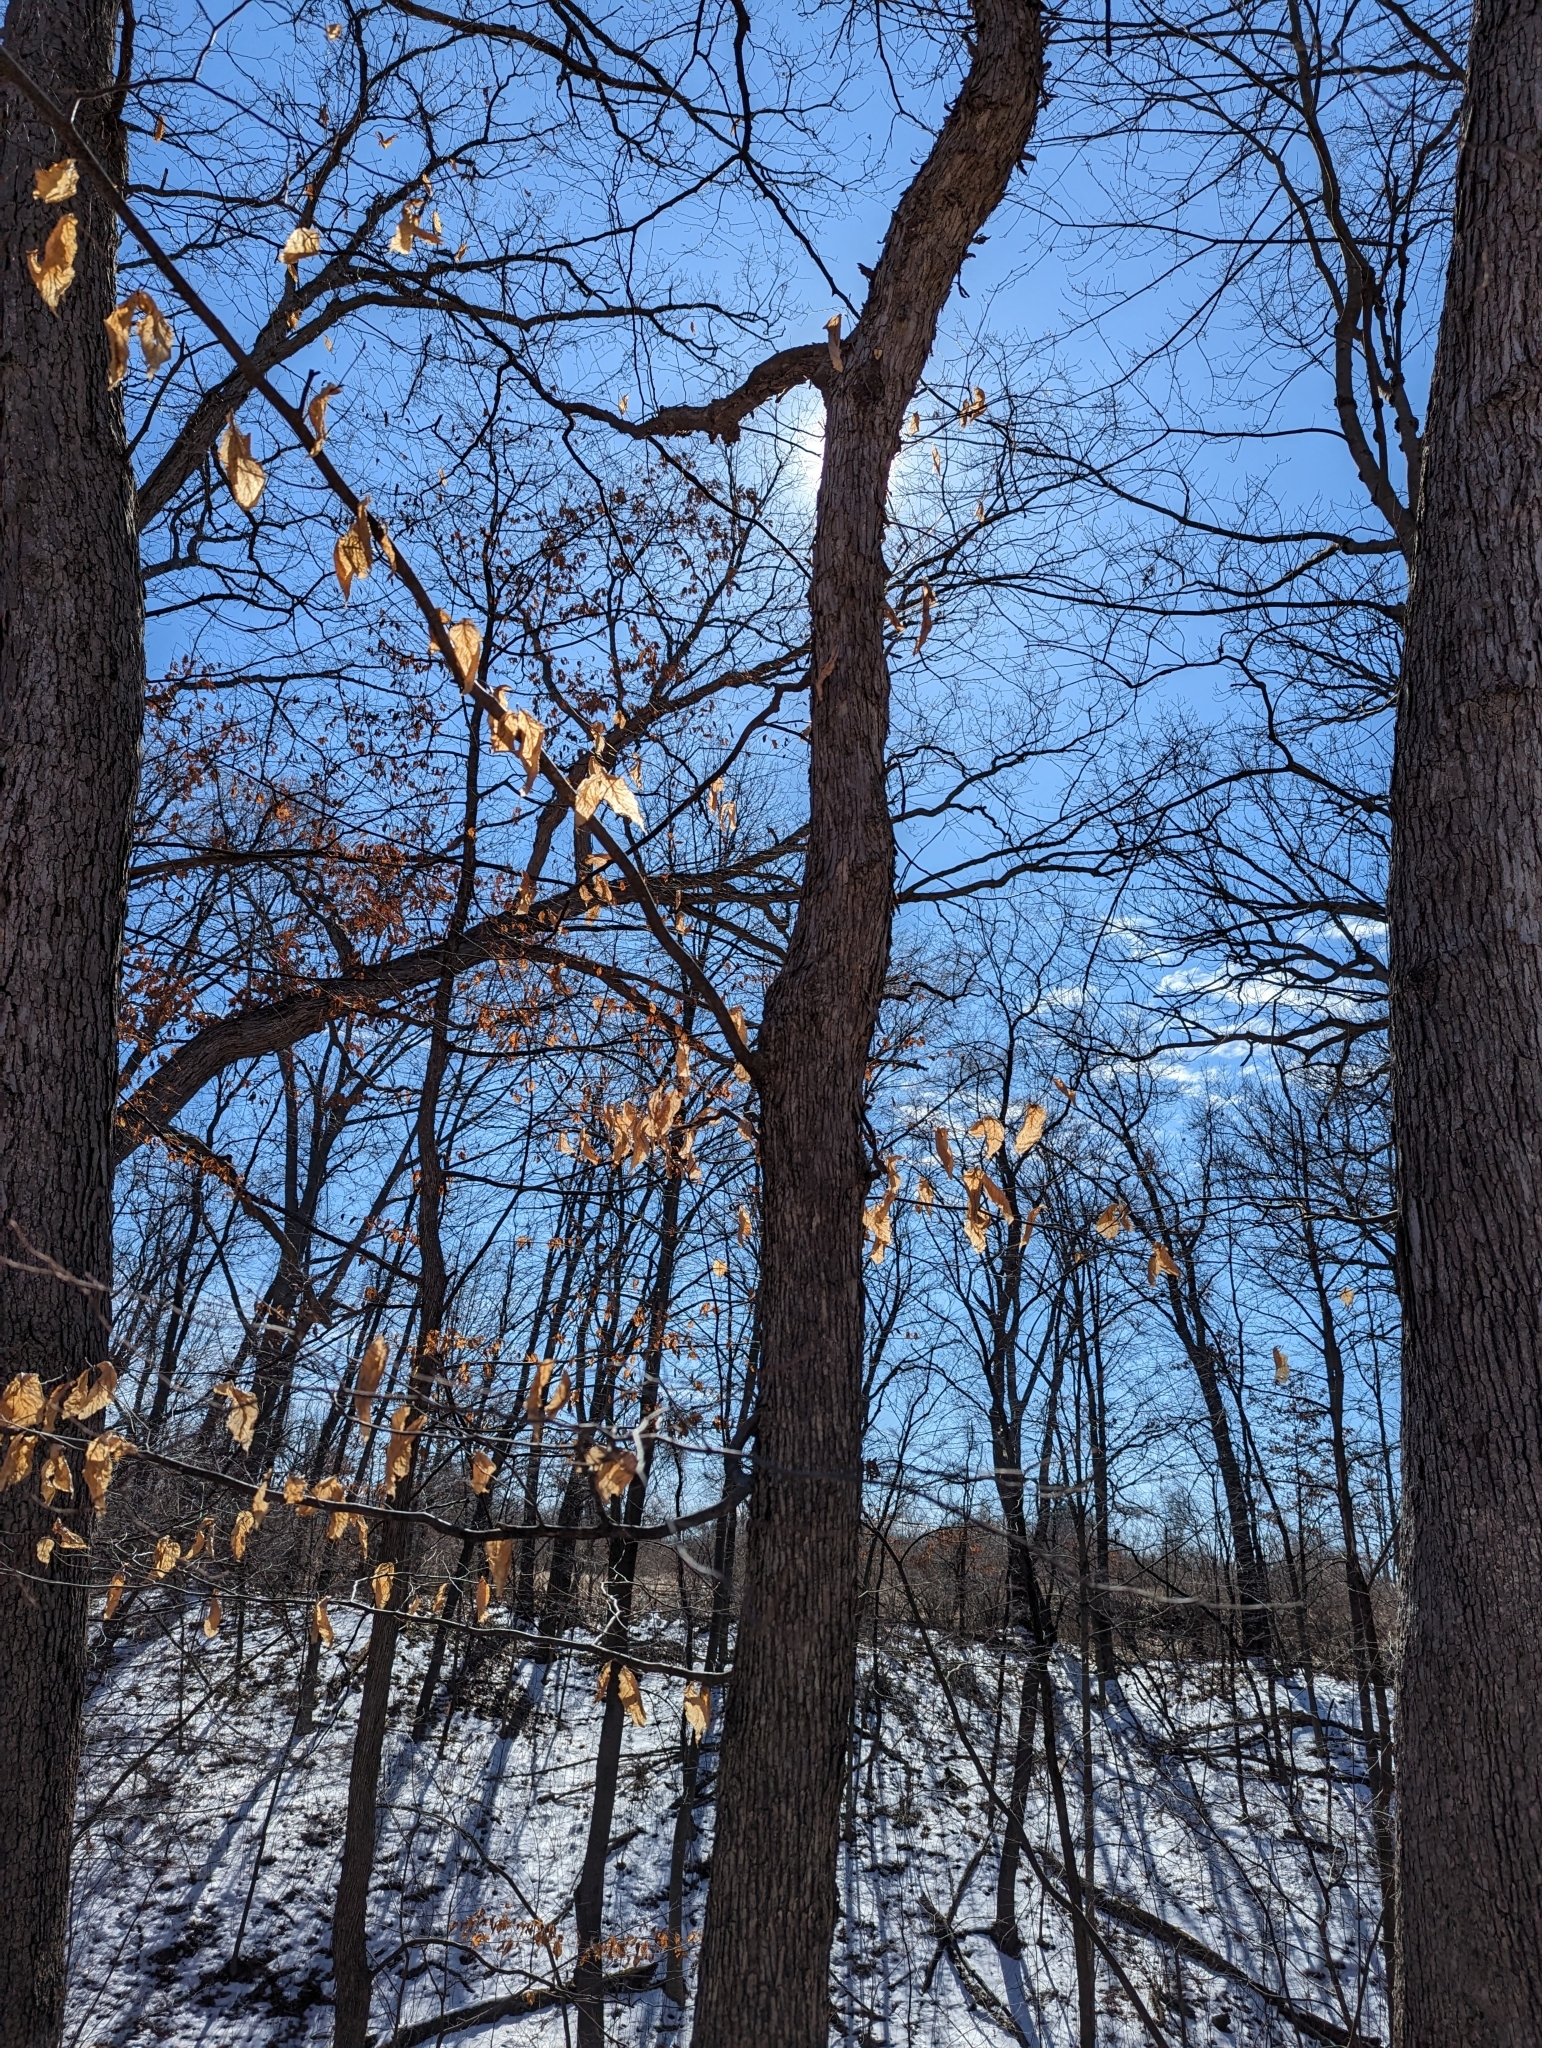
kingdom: Plantae
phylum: Tracheophyta
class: Magnoliopsida
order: Fagales
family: Betulaceae
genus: Ostrya
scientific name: Ostrya virginiana
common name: Ironwood
